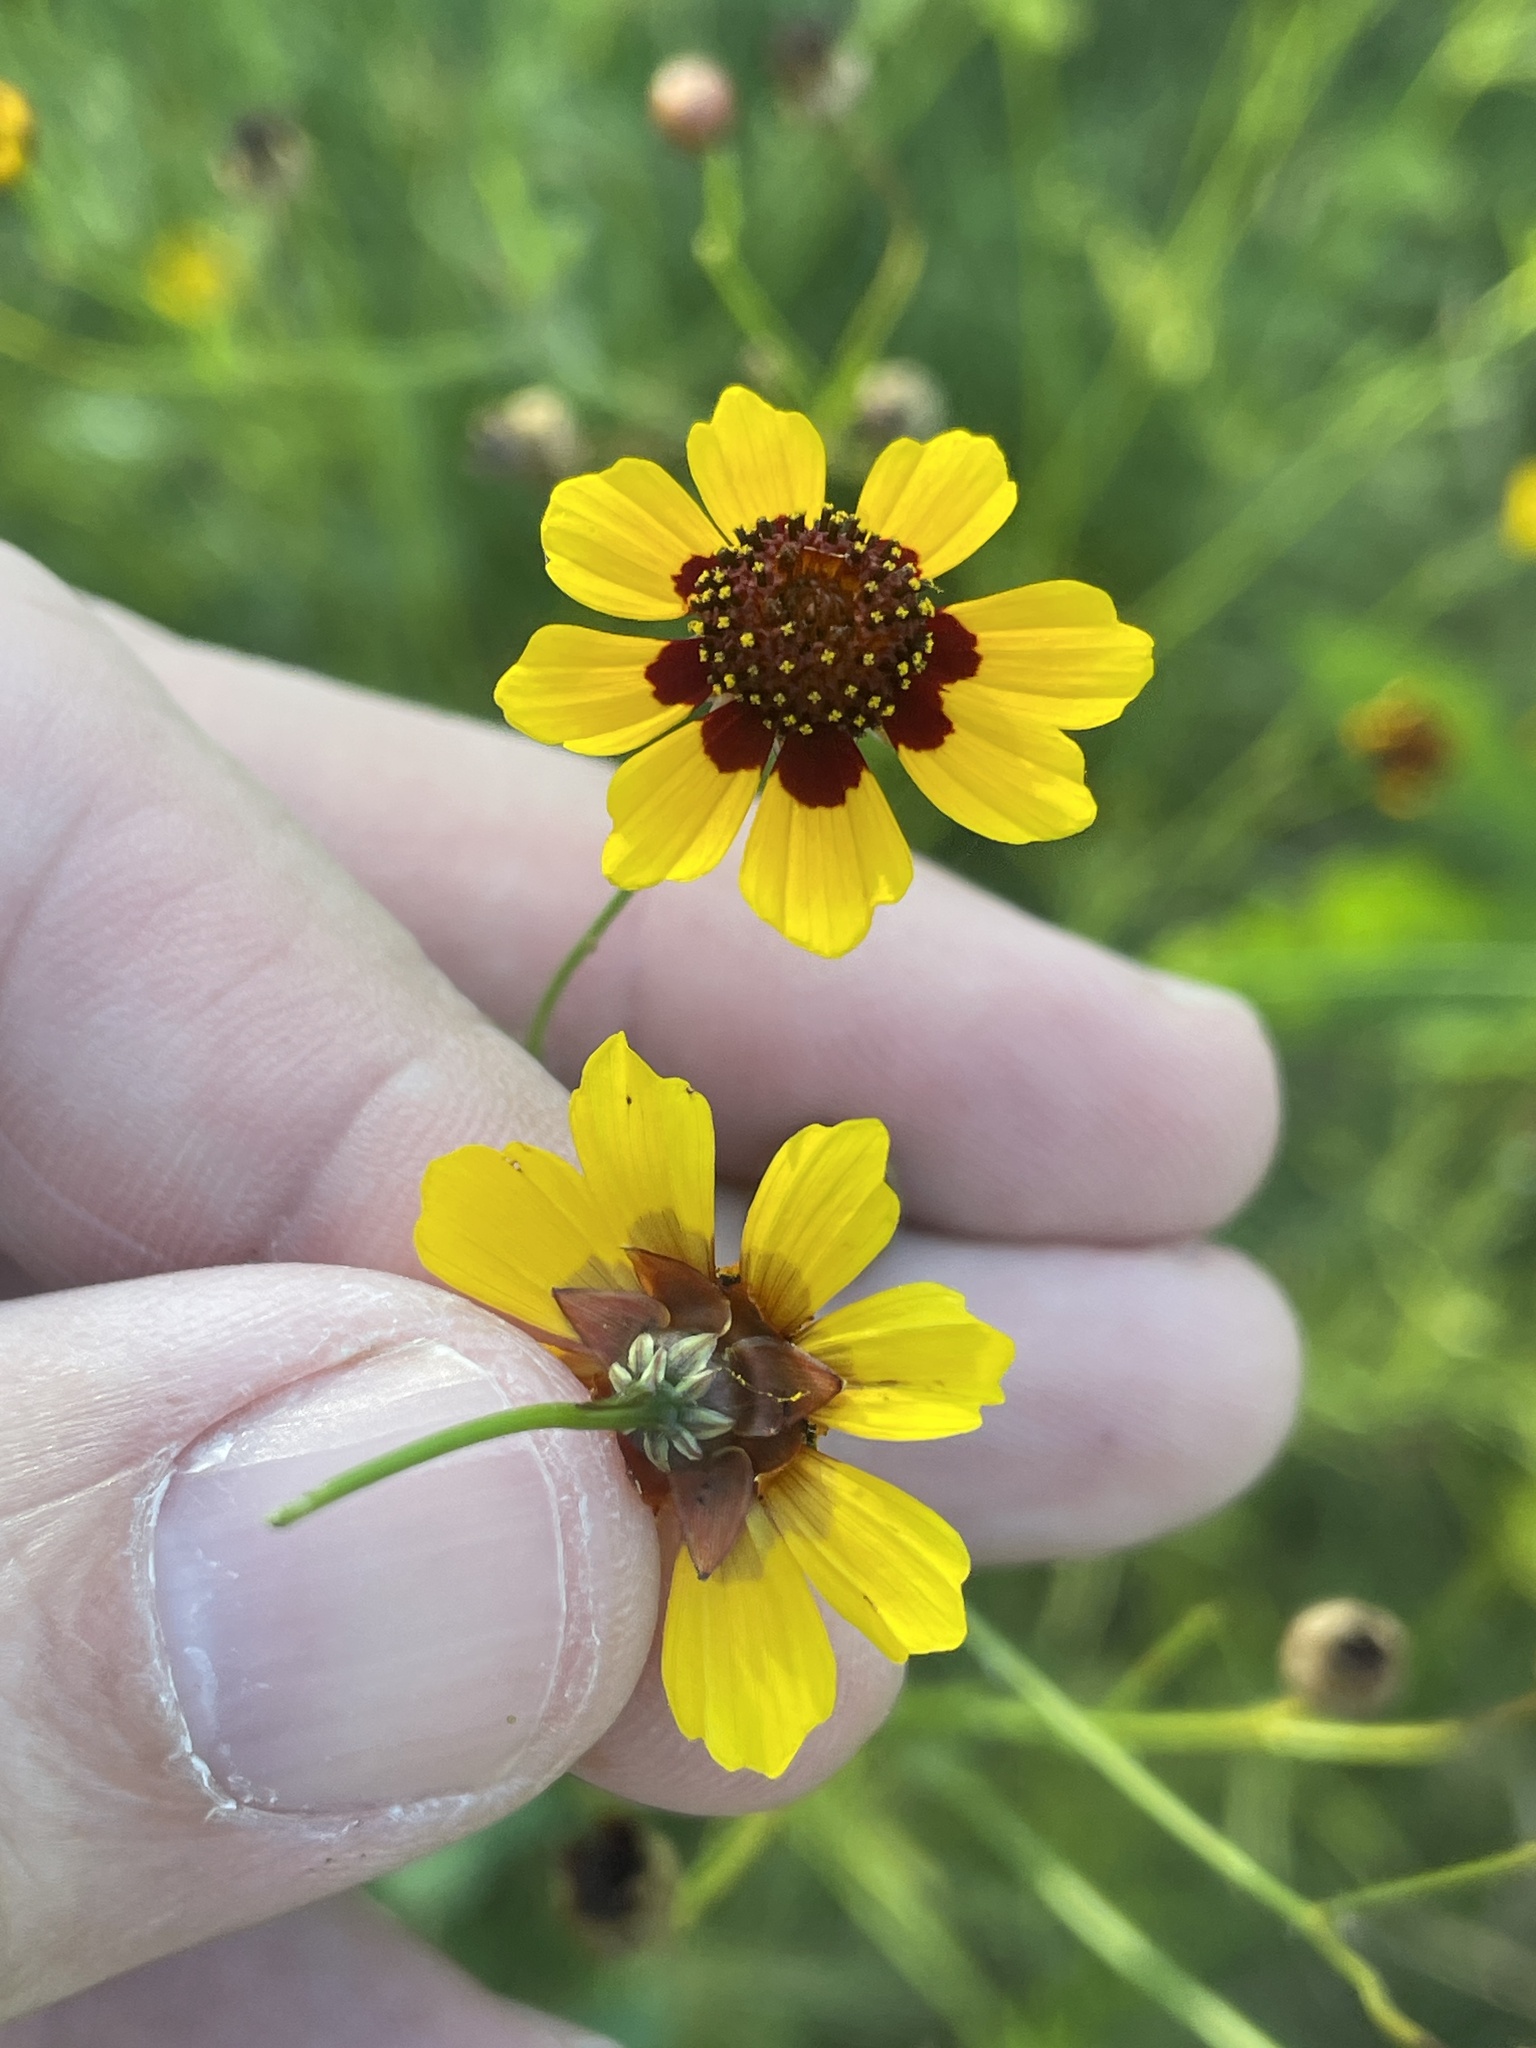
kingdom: Plantae
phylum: Tracheophyta
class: Magnoliopsida
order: Asterales
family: Asteraceae
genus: Coreopsis
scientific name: Coreopsis tinctoria
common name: Garden tickseed
